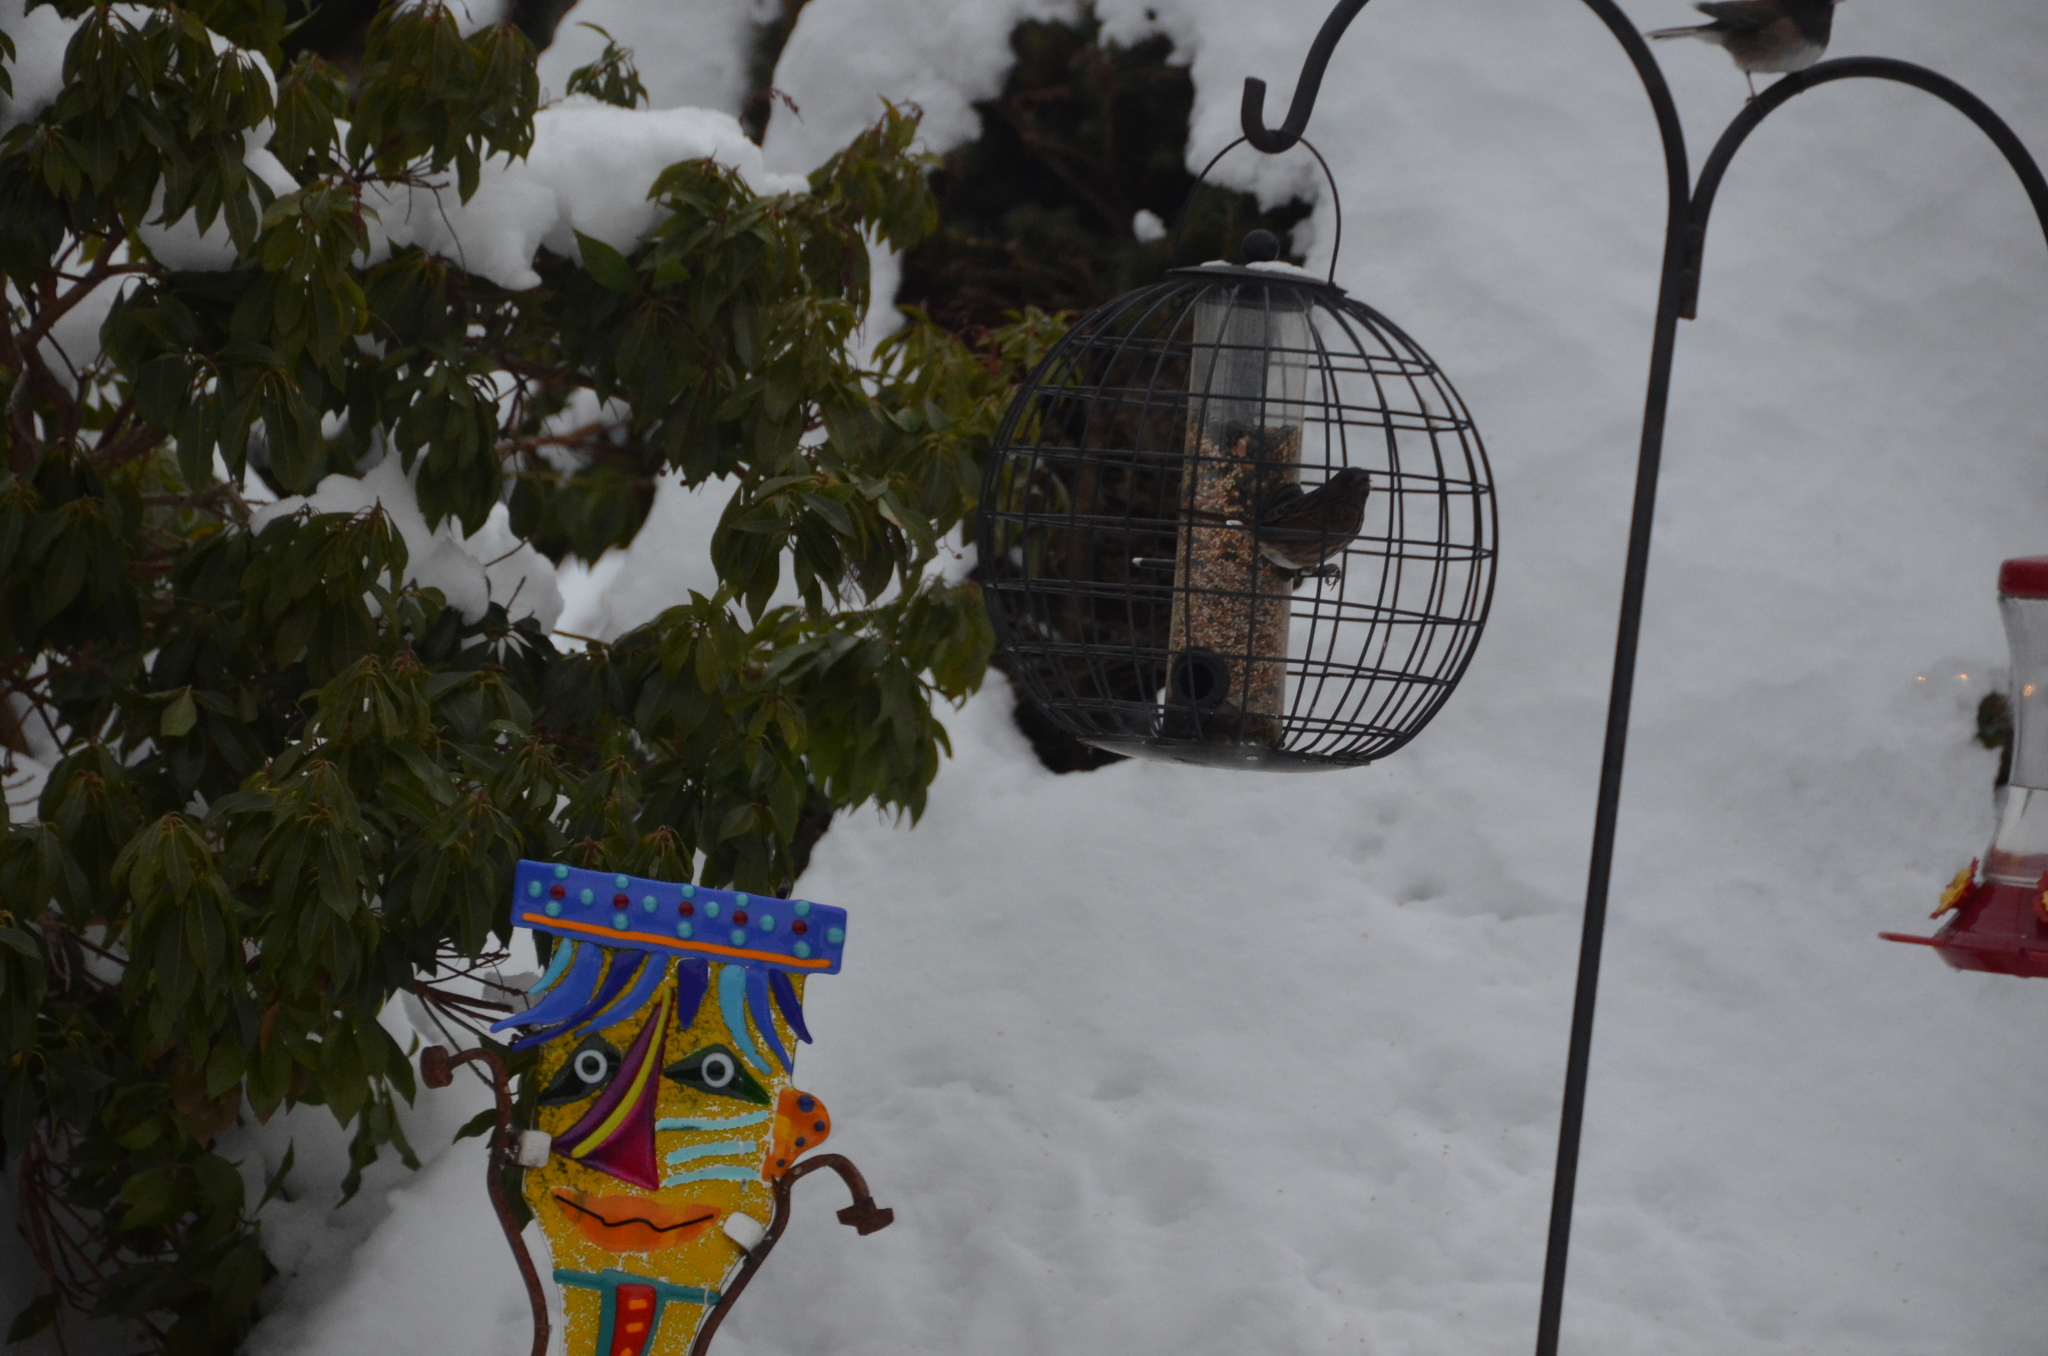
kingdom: Animalia
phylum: Chordata
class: Aves
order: Passeriformes
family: Passerellidae
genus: Melospiza
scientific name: Melospiza melodia
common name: Song sparrow
